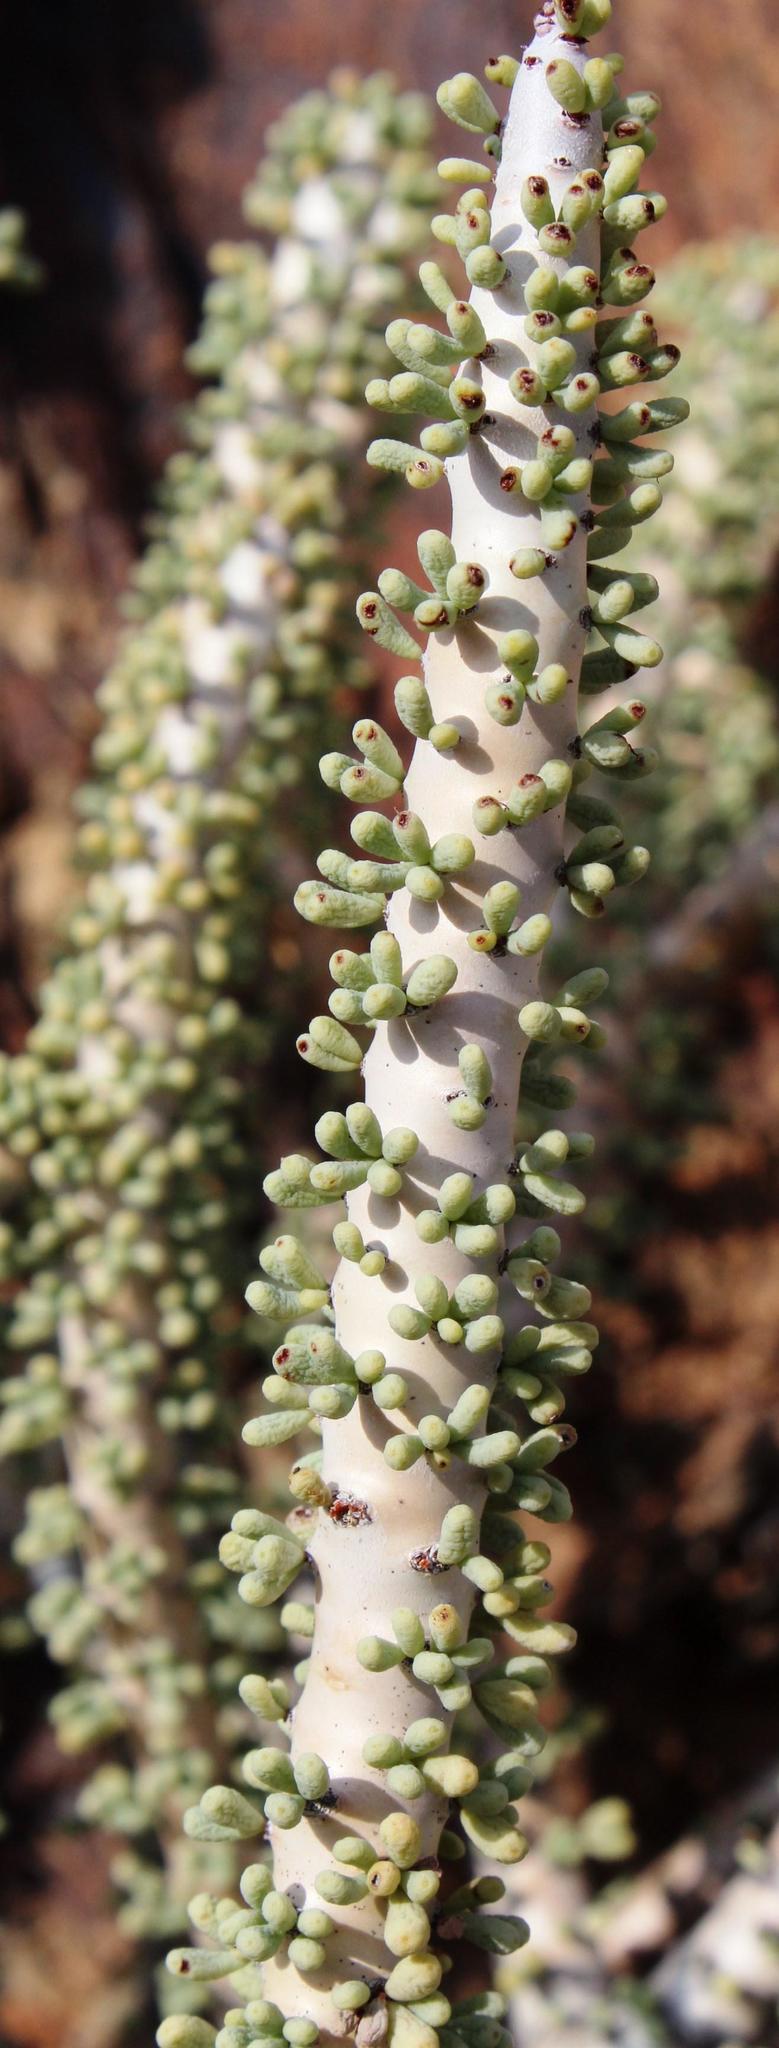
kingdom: Plantae
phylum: Tracheophyta
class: Magnoliopsida
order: Caryophyllales
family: Didiereaceae
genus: Portulacaria
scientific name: Portulacaria namaquensis
